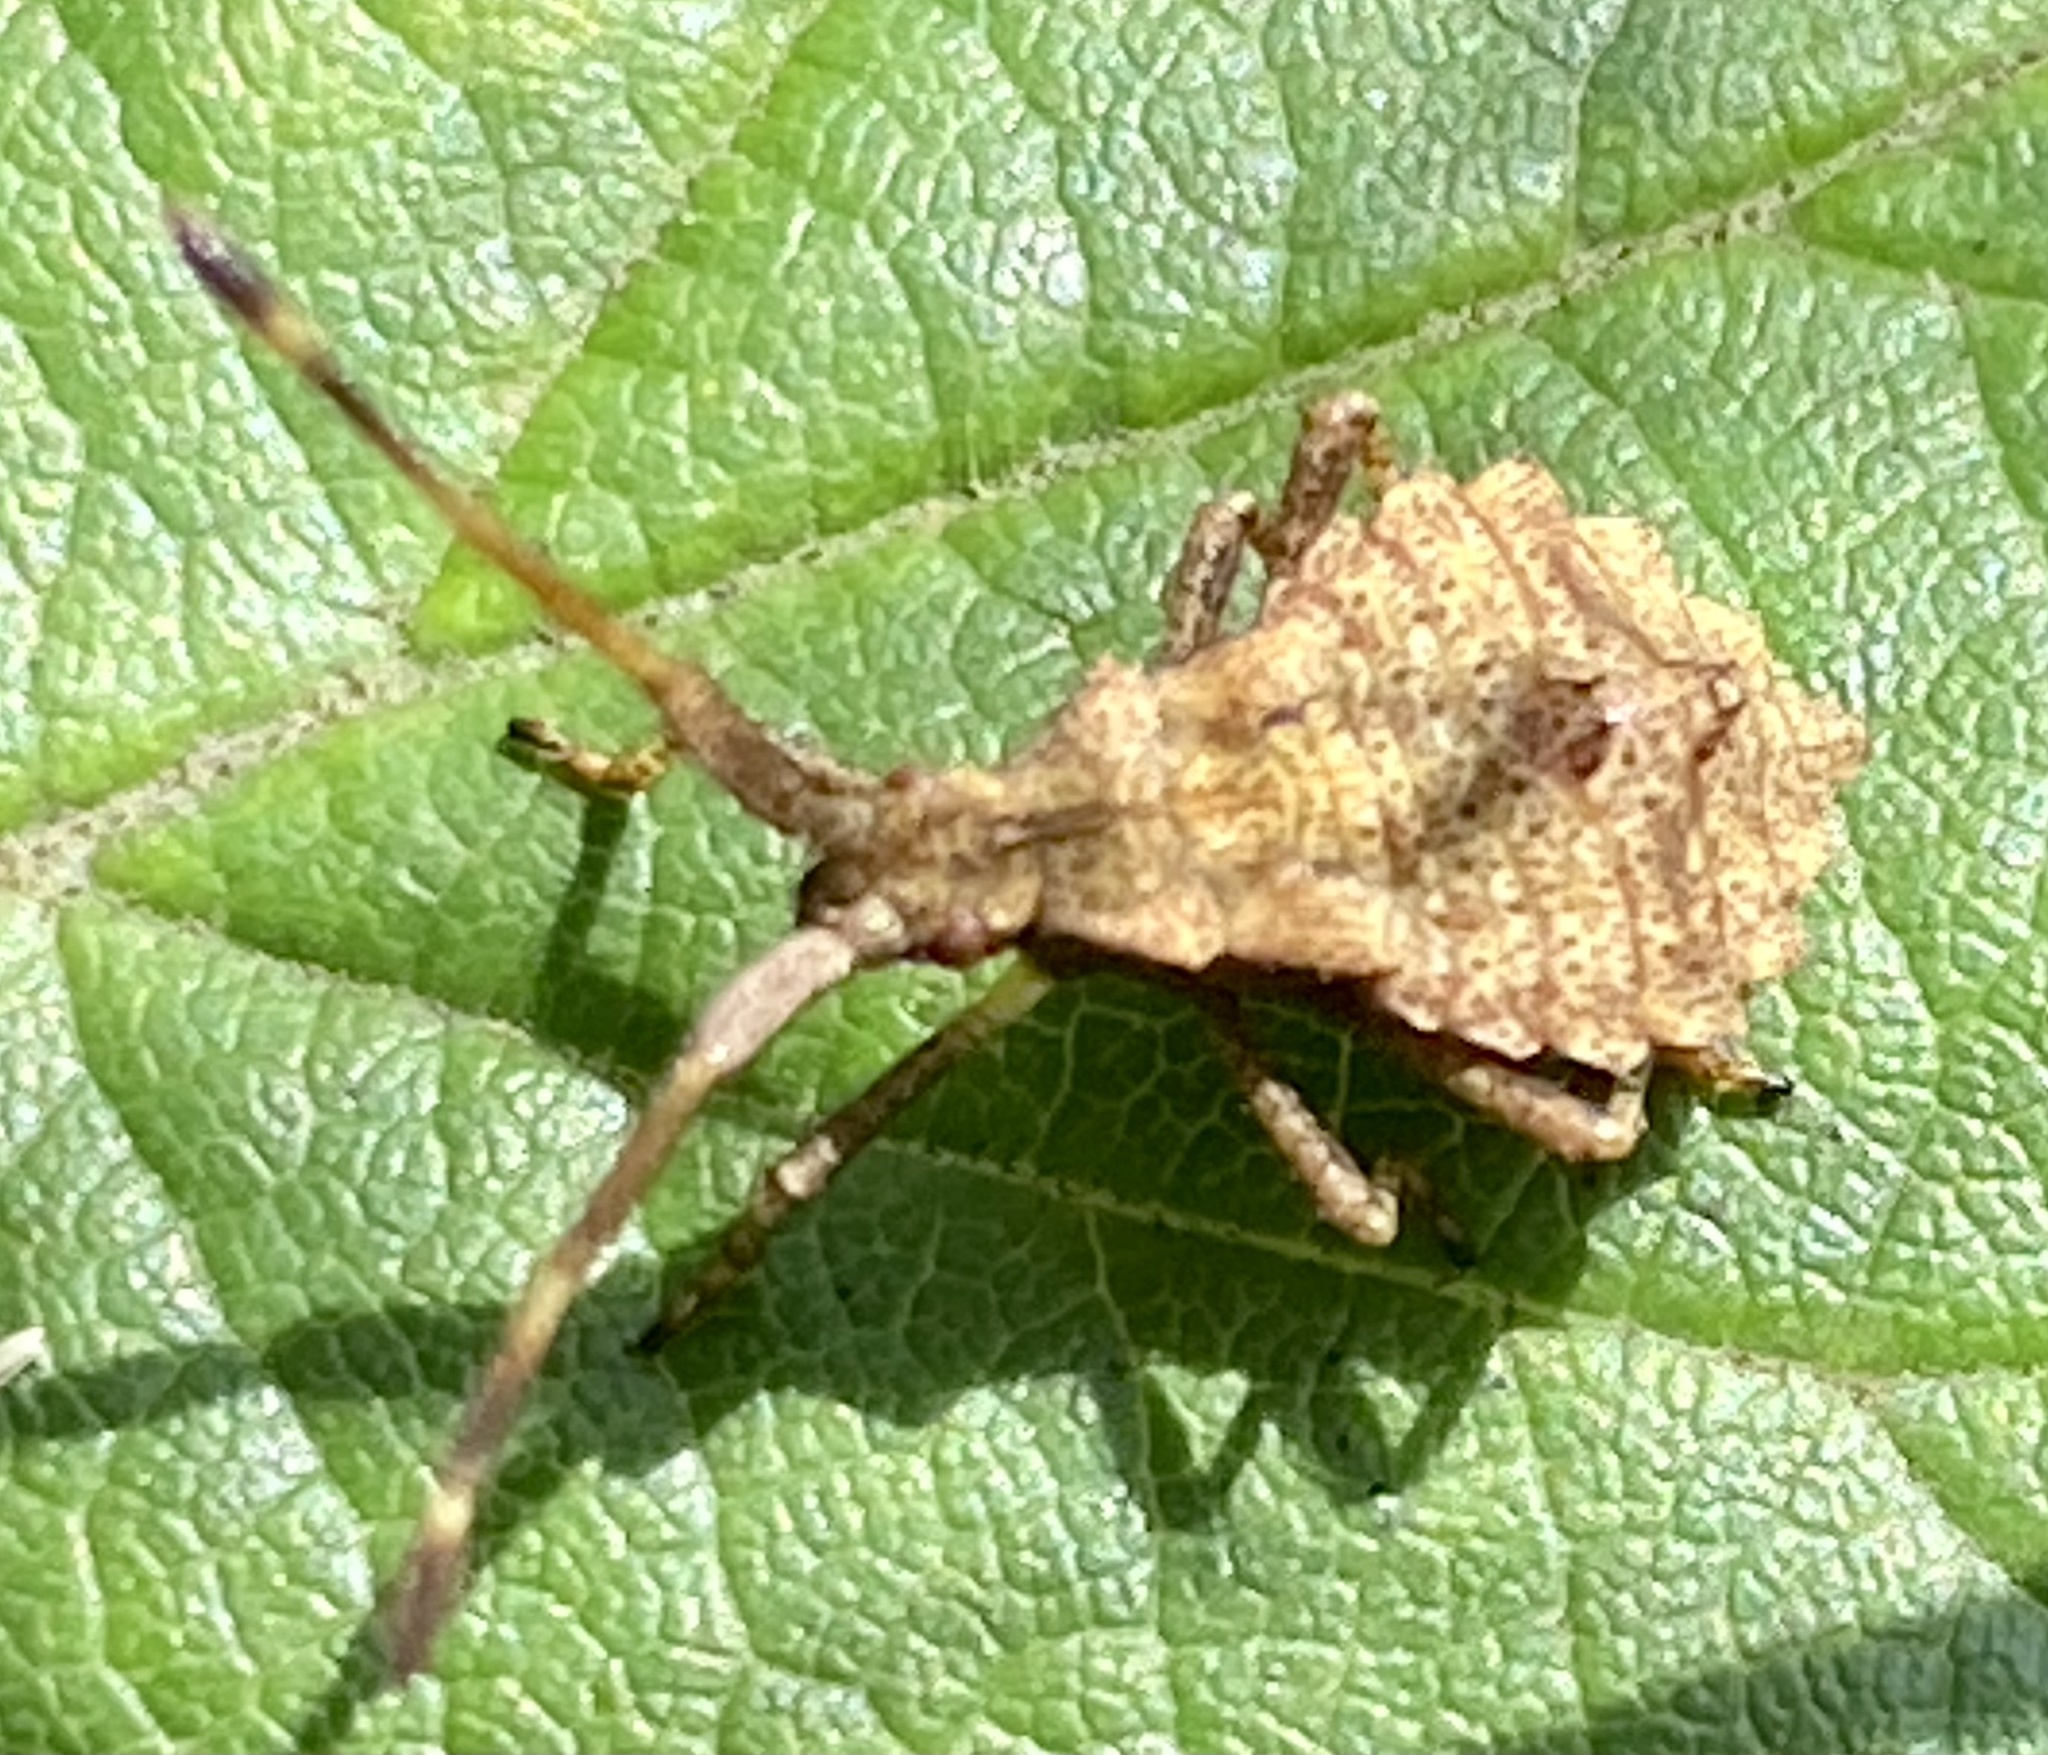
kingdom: Animalia
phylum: Arthropoda
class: Insecta
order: Hemiptera
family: Coreidae
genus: Coreus
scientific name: Coreus marginatus
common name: Dock bug
